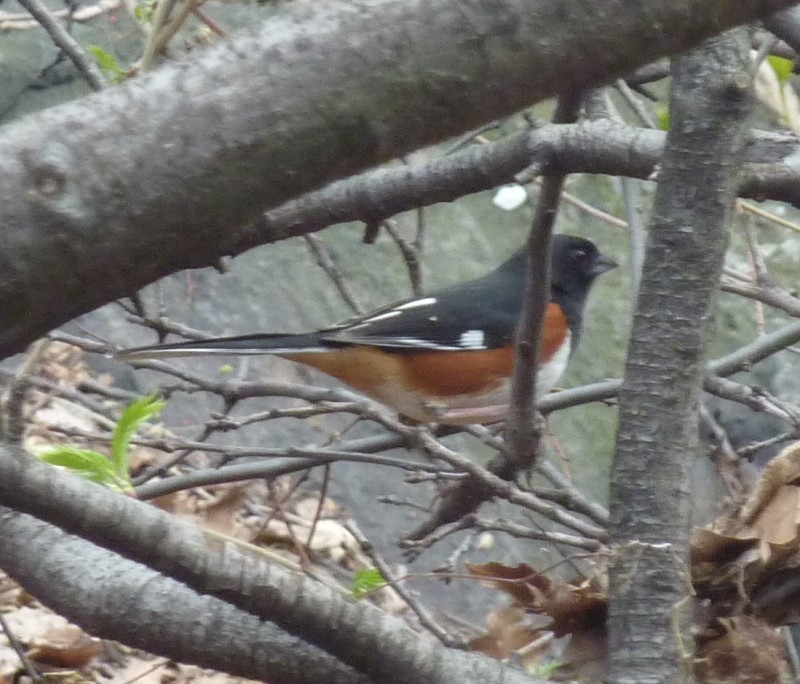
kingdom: Animalia
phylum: Chordata
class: Aves
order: Passeriformes
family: Passerellidae
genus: Pipilo
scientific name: Pipilo erythrophthalmus
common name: Eastern towhee
